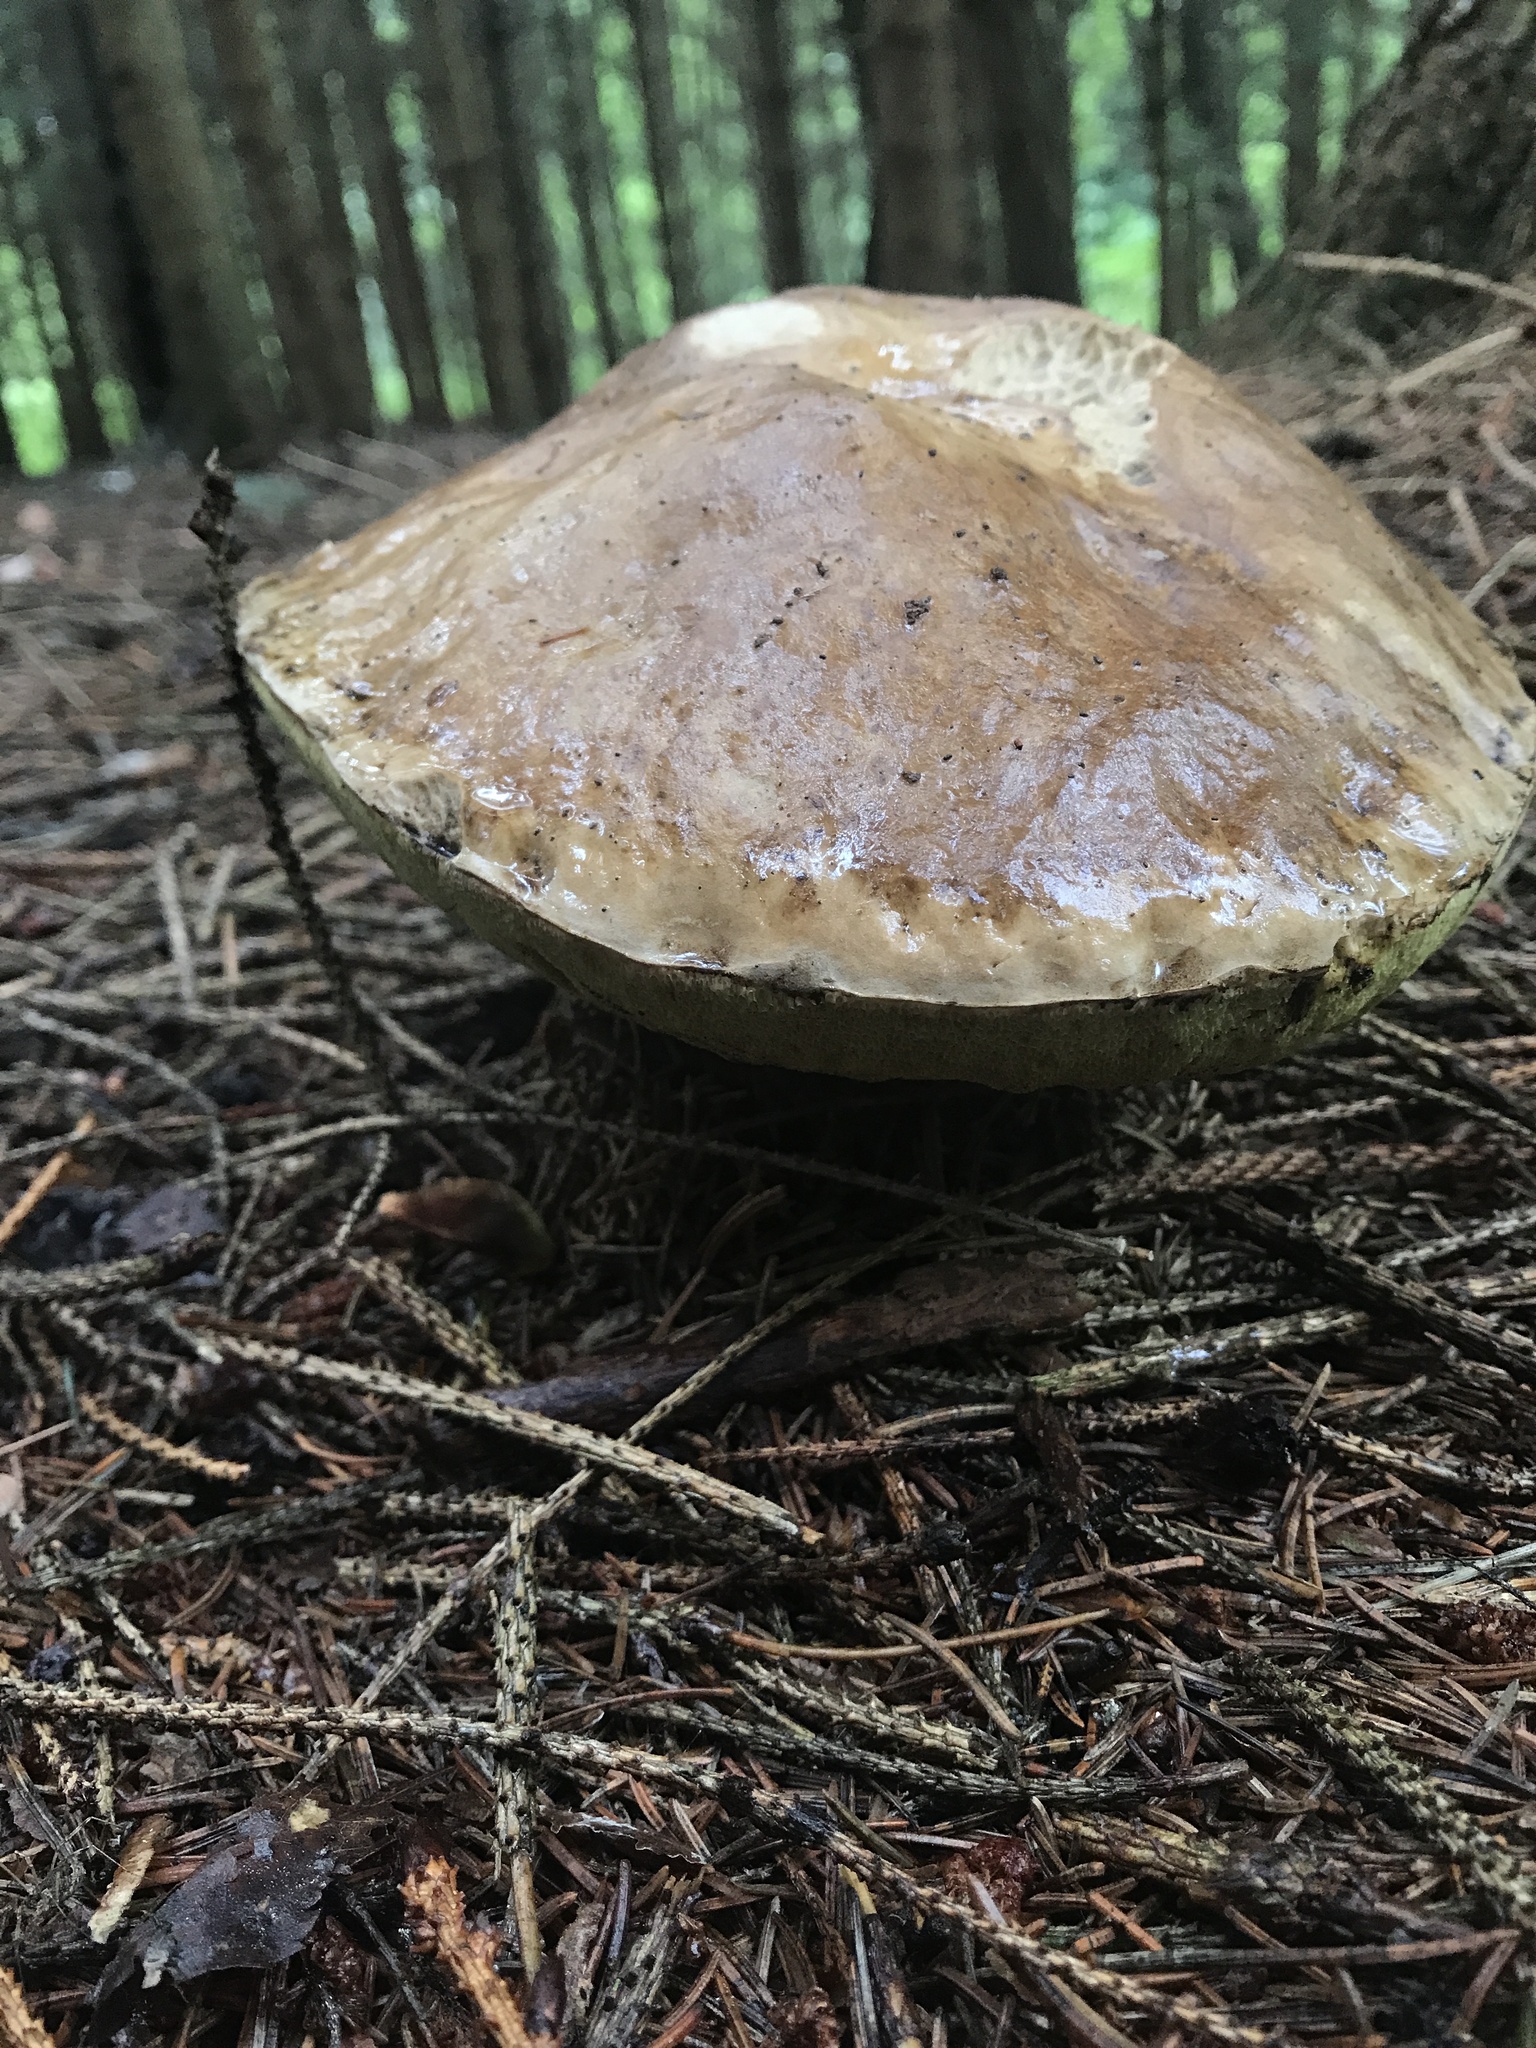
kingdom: Fungi
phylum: Basidiomycota
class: Agaricomycetes
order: Boletales
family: Boletaceae
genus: Boletus
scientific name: Boletus edulis
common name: Cep
